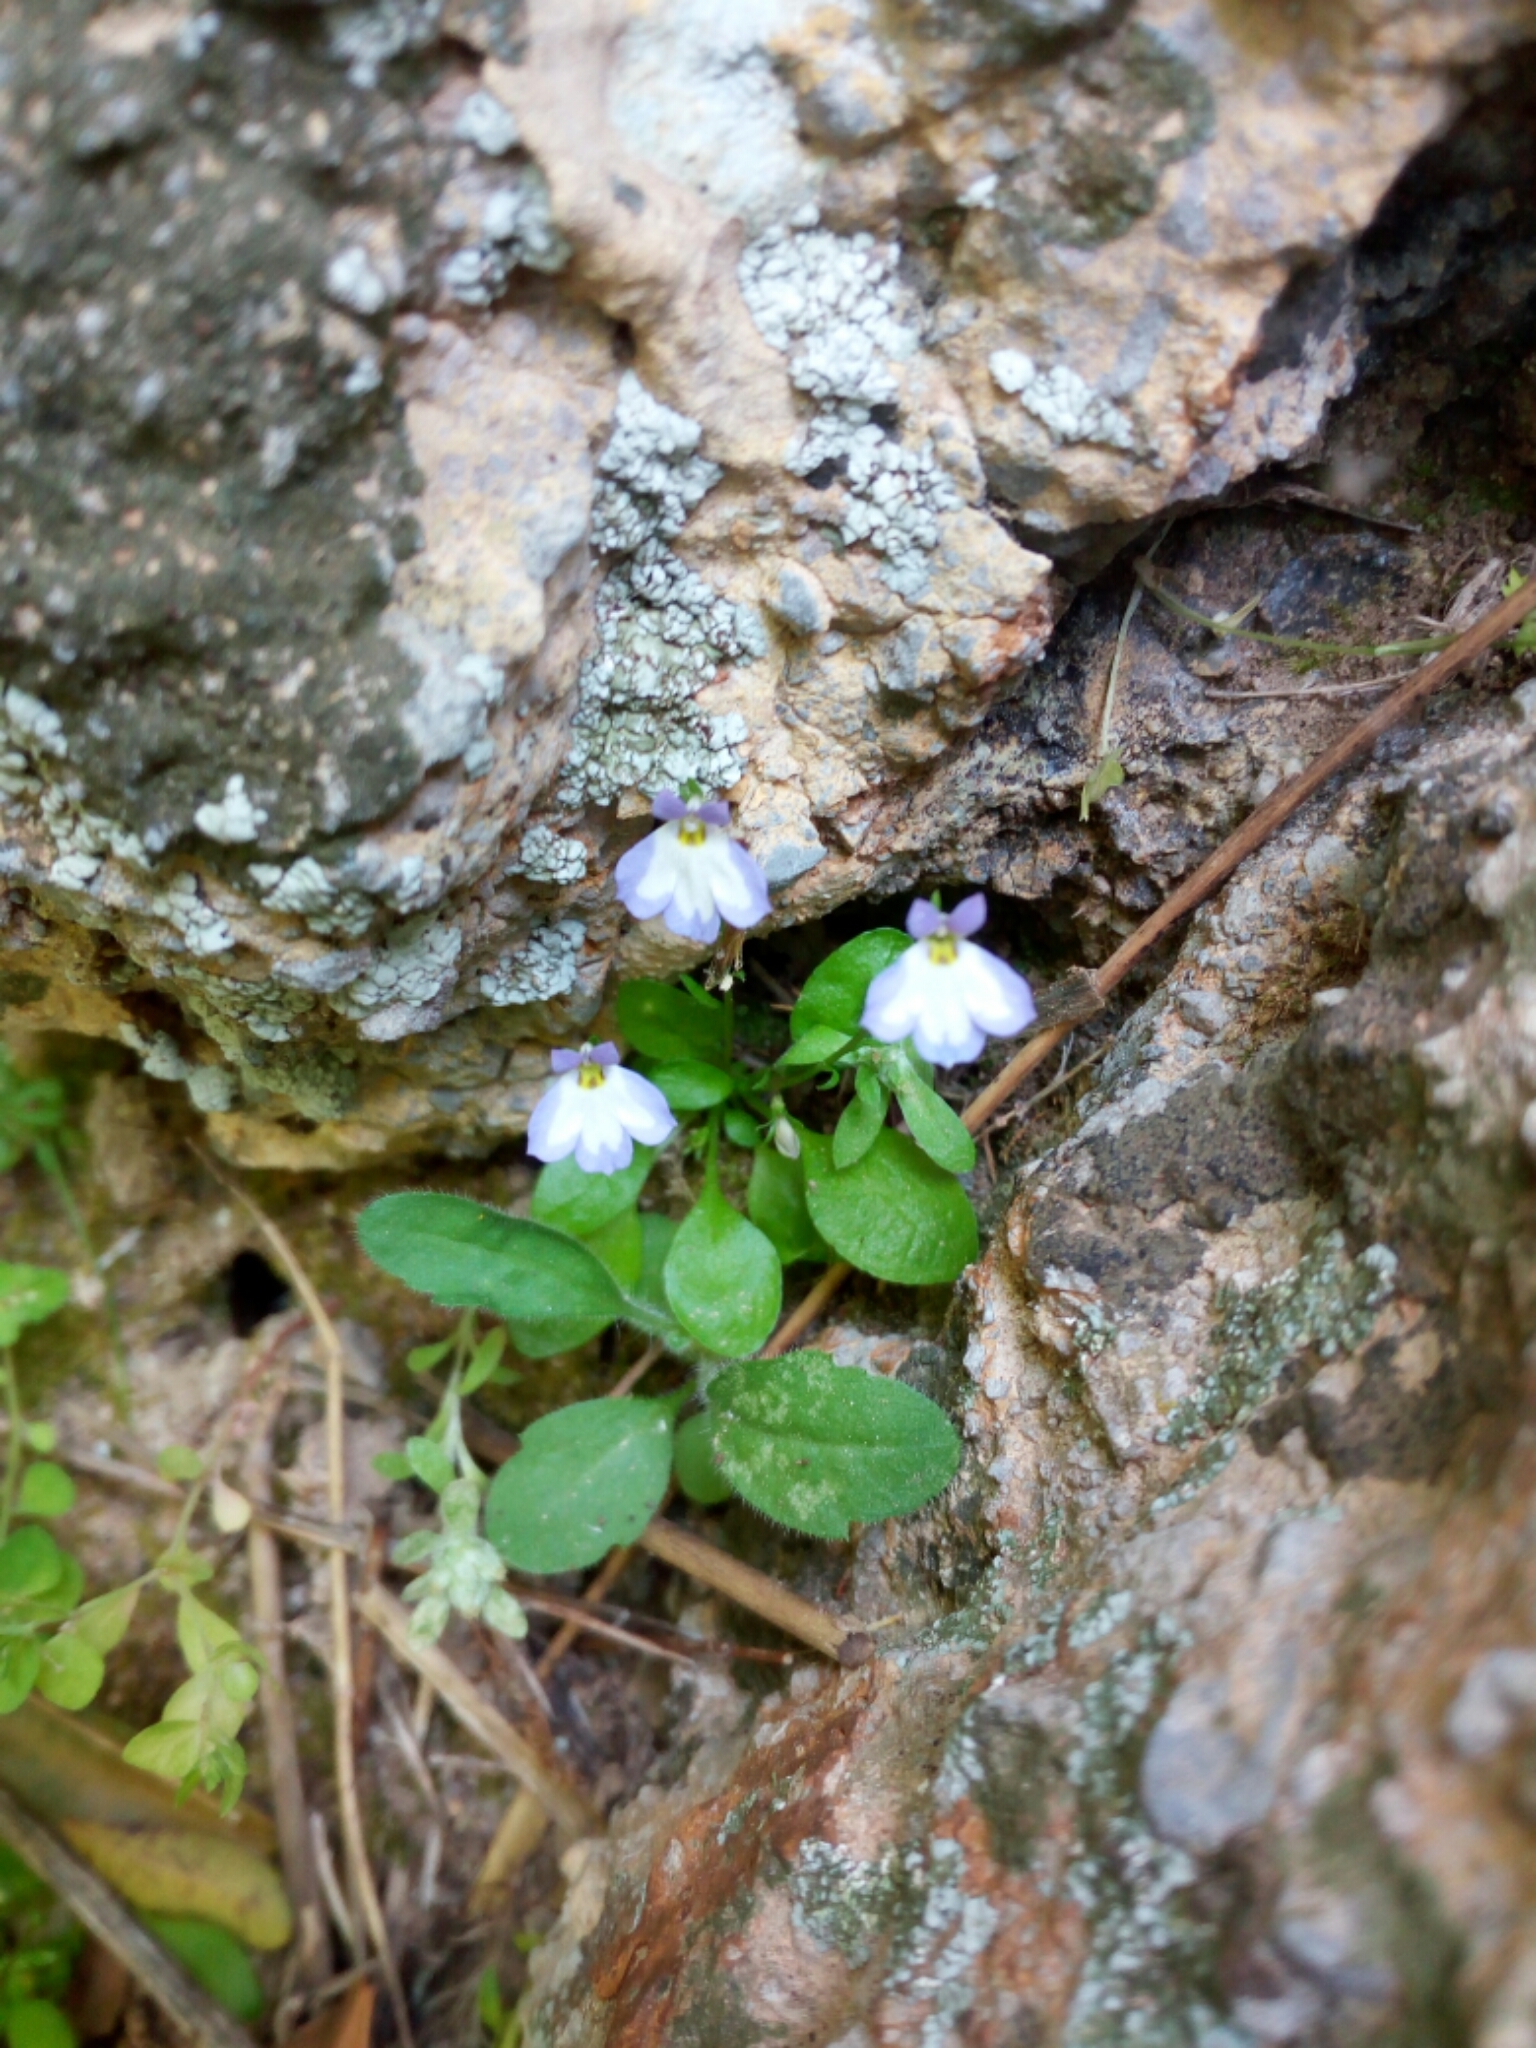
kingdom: Plantae
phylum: Tracheophyta
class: Magnoliopsida
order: Asterales
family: Campanulaceae
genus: Solenopsis
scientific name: Solenopsis minuta
